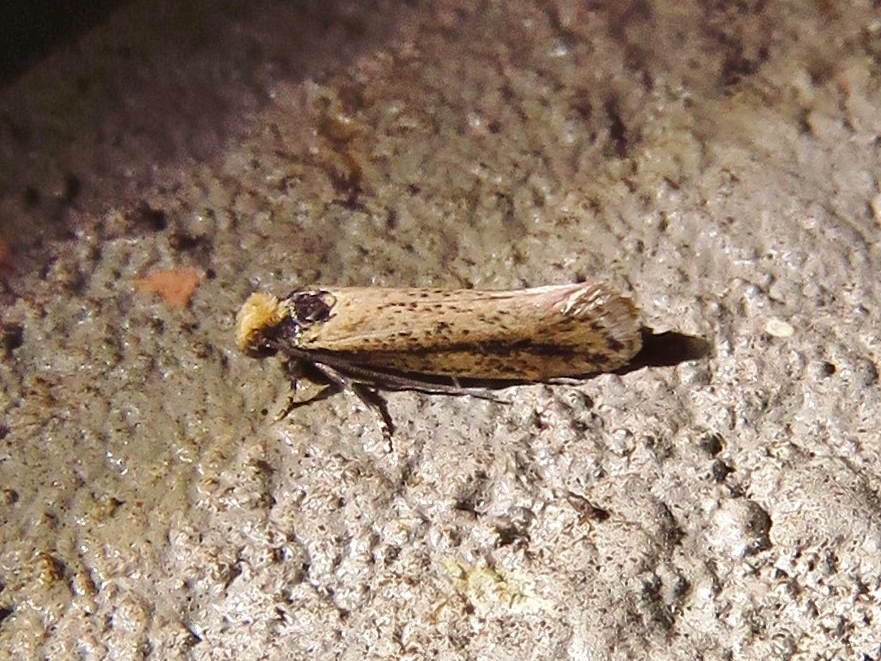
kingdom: Animalia
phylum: Arthropoda
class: Insecta
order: Lepidoptera
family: Tineidae
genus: Tinea
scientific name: Tinea apicimaculella
